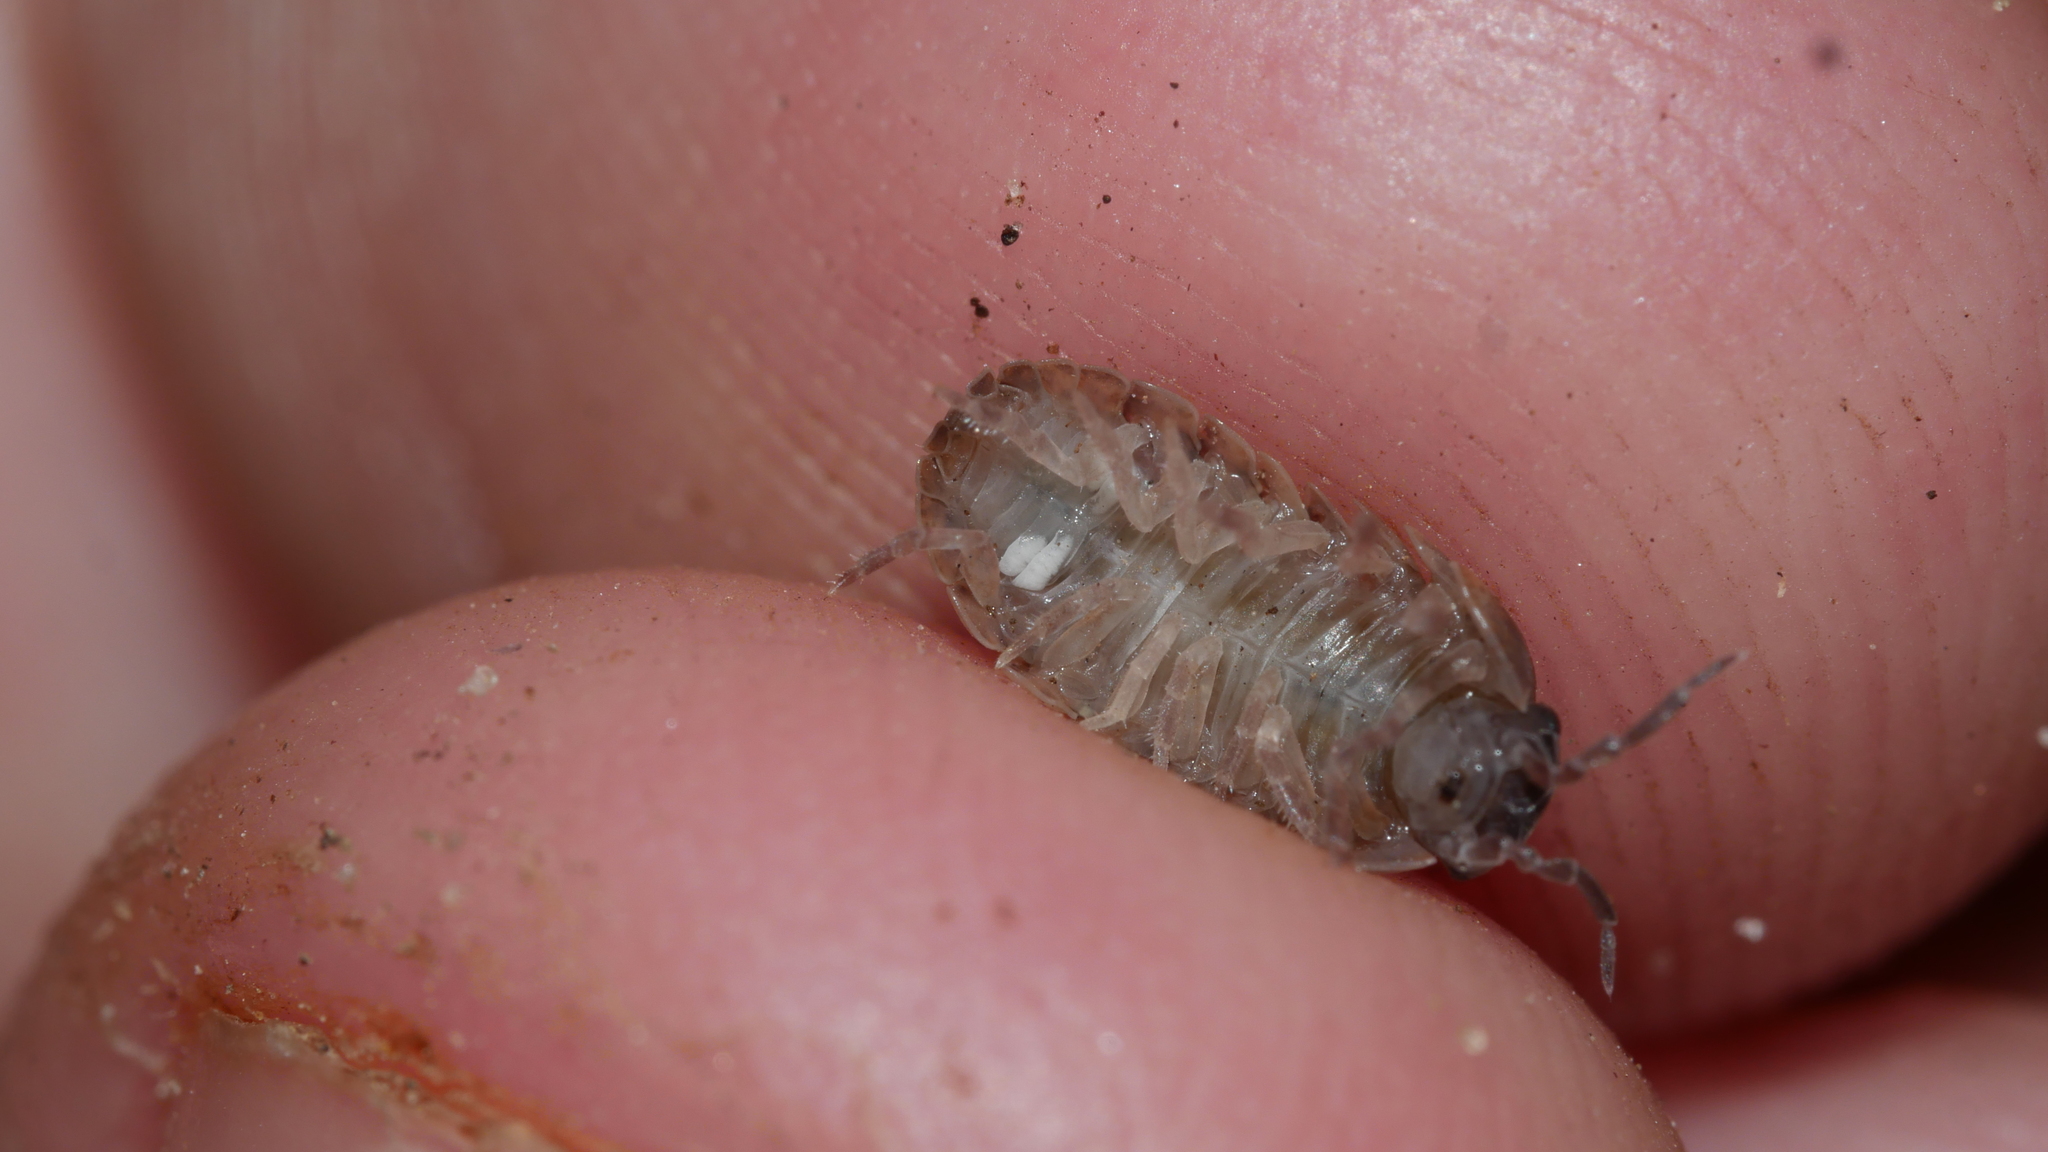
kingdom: Animalia
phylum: Arthropoda
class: Malacostraca
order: Isopoda
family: Armadillidiidae
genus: Armadillidium
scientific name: Armadillidium vulgare
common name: Common pill woodlouse
